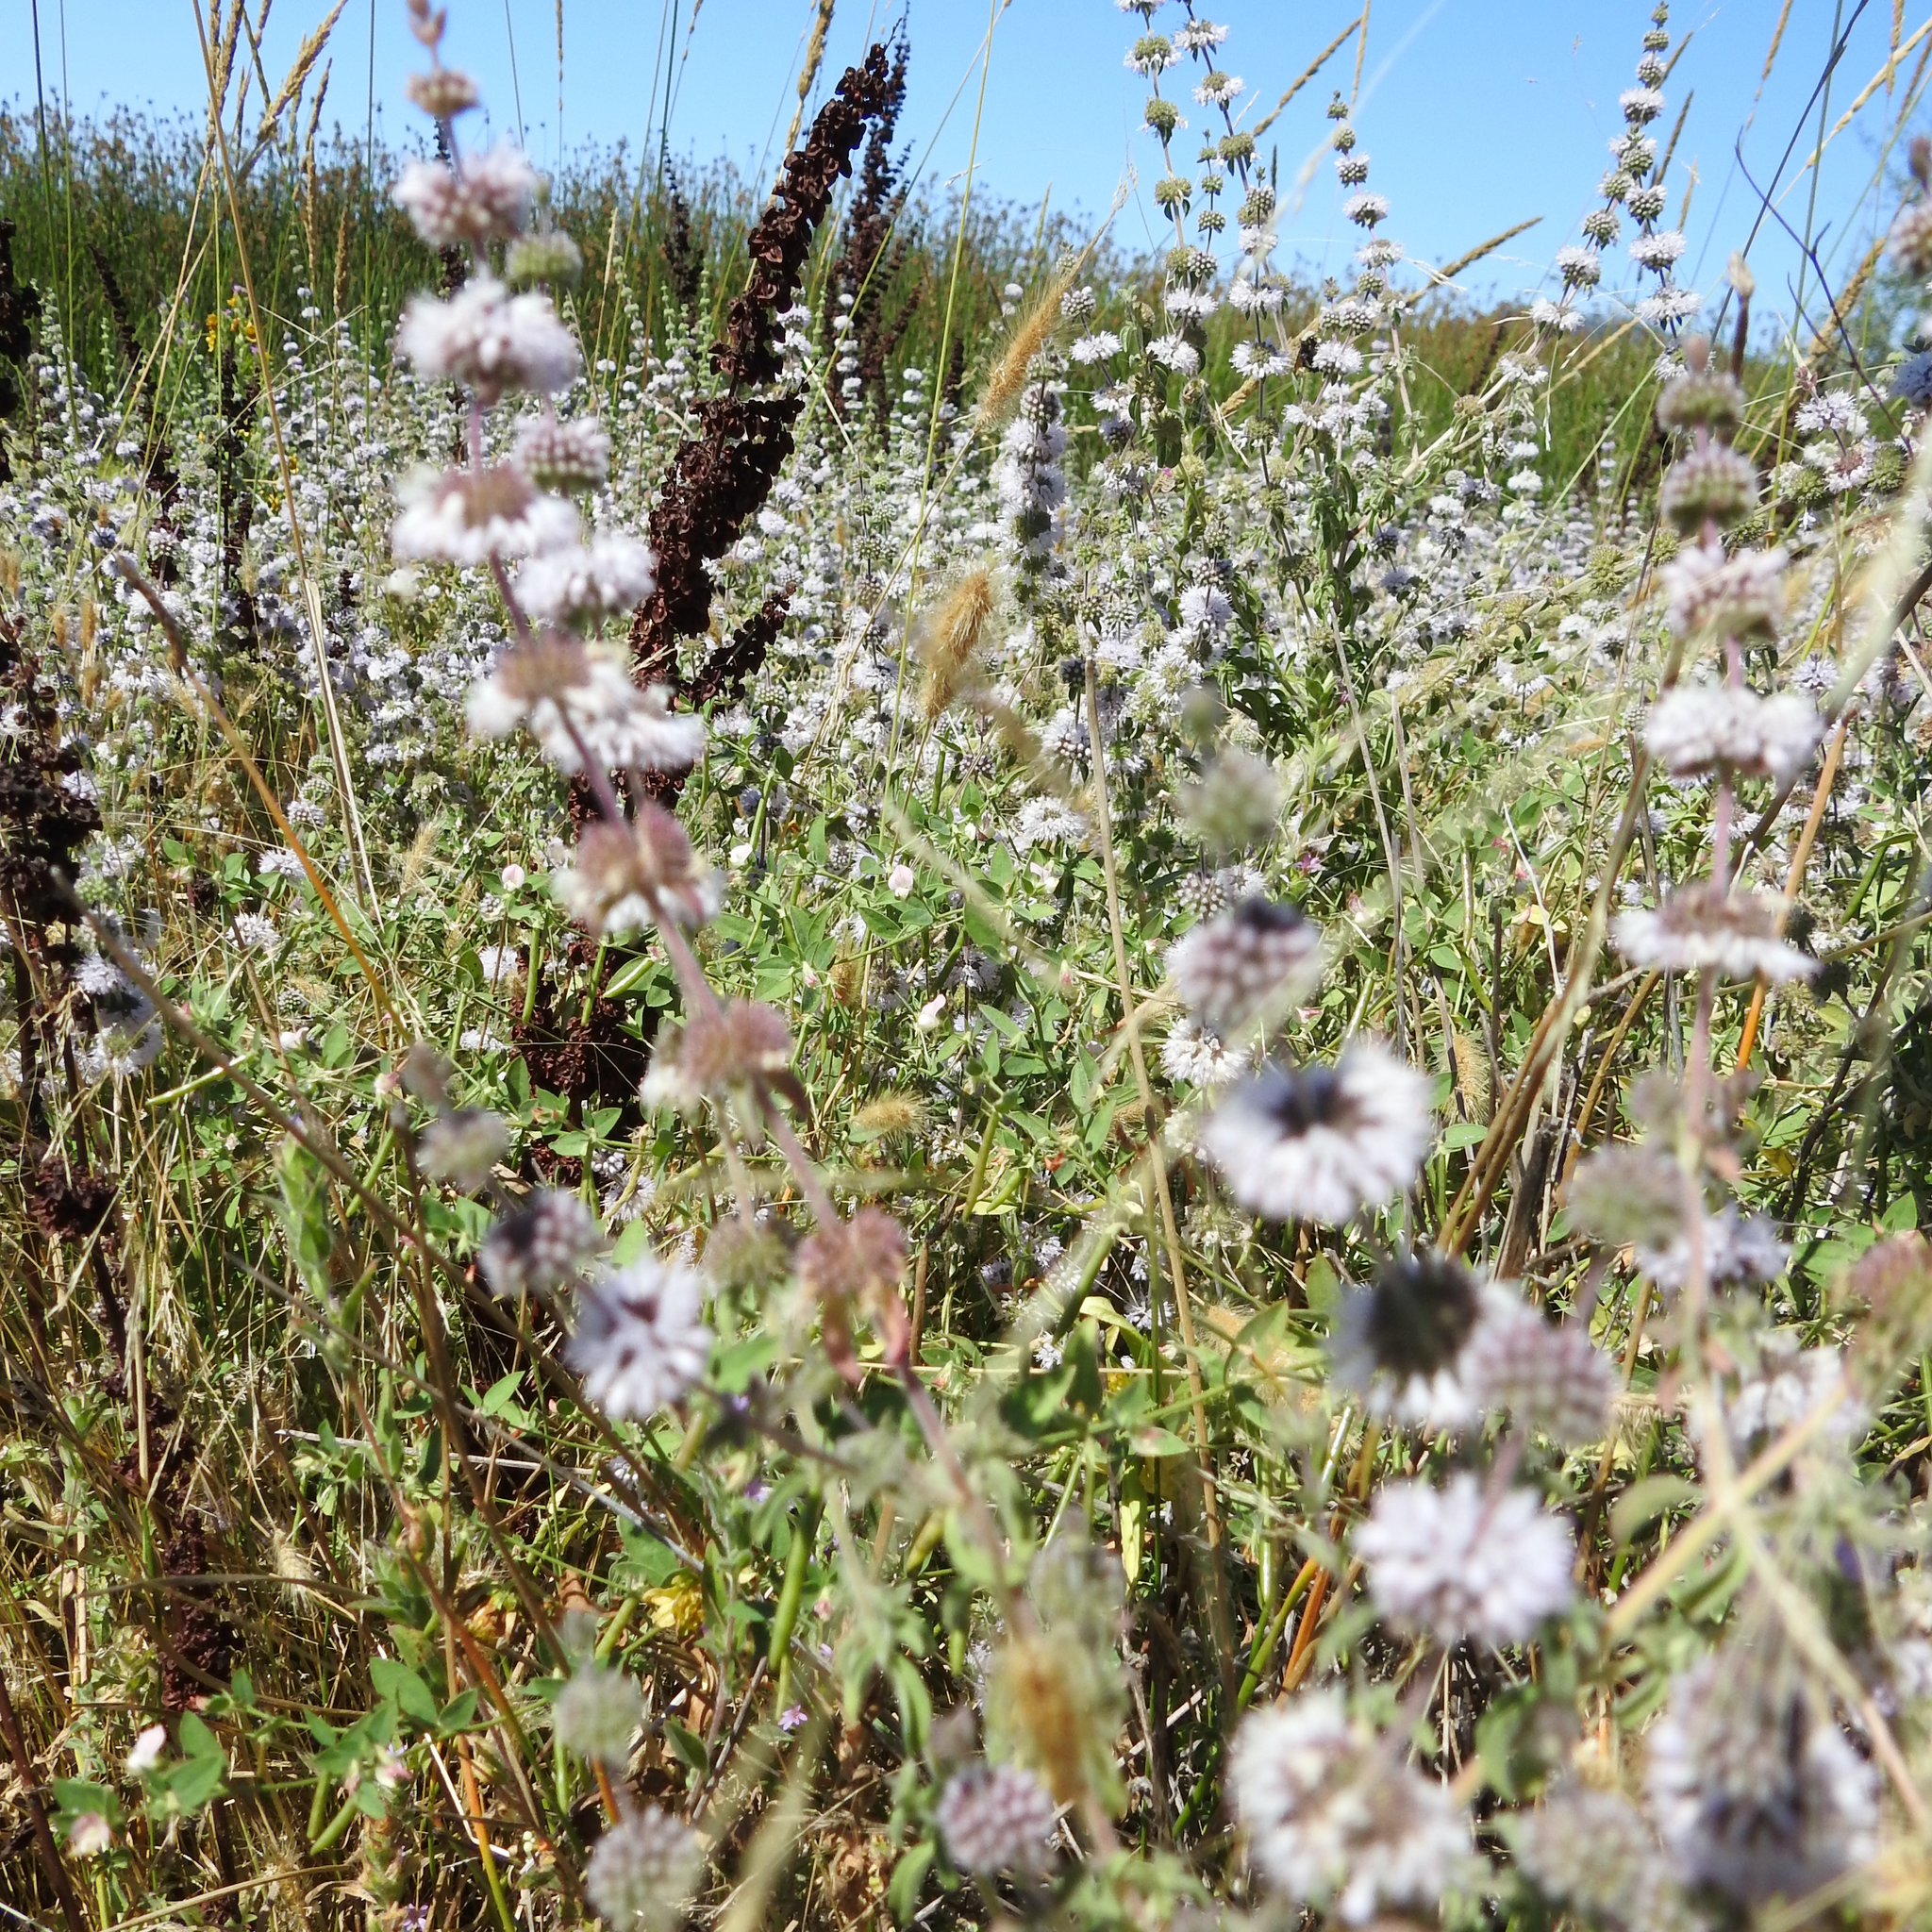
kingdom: Plantae
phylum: Tracheophyta
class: Magnoliopsida
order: Lamiales
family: Lamiaceae
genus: Mentha
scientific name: Mentha pulegium
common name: Pennyroyal
